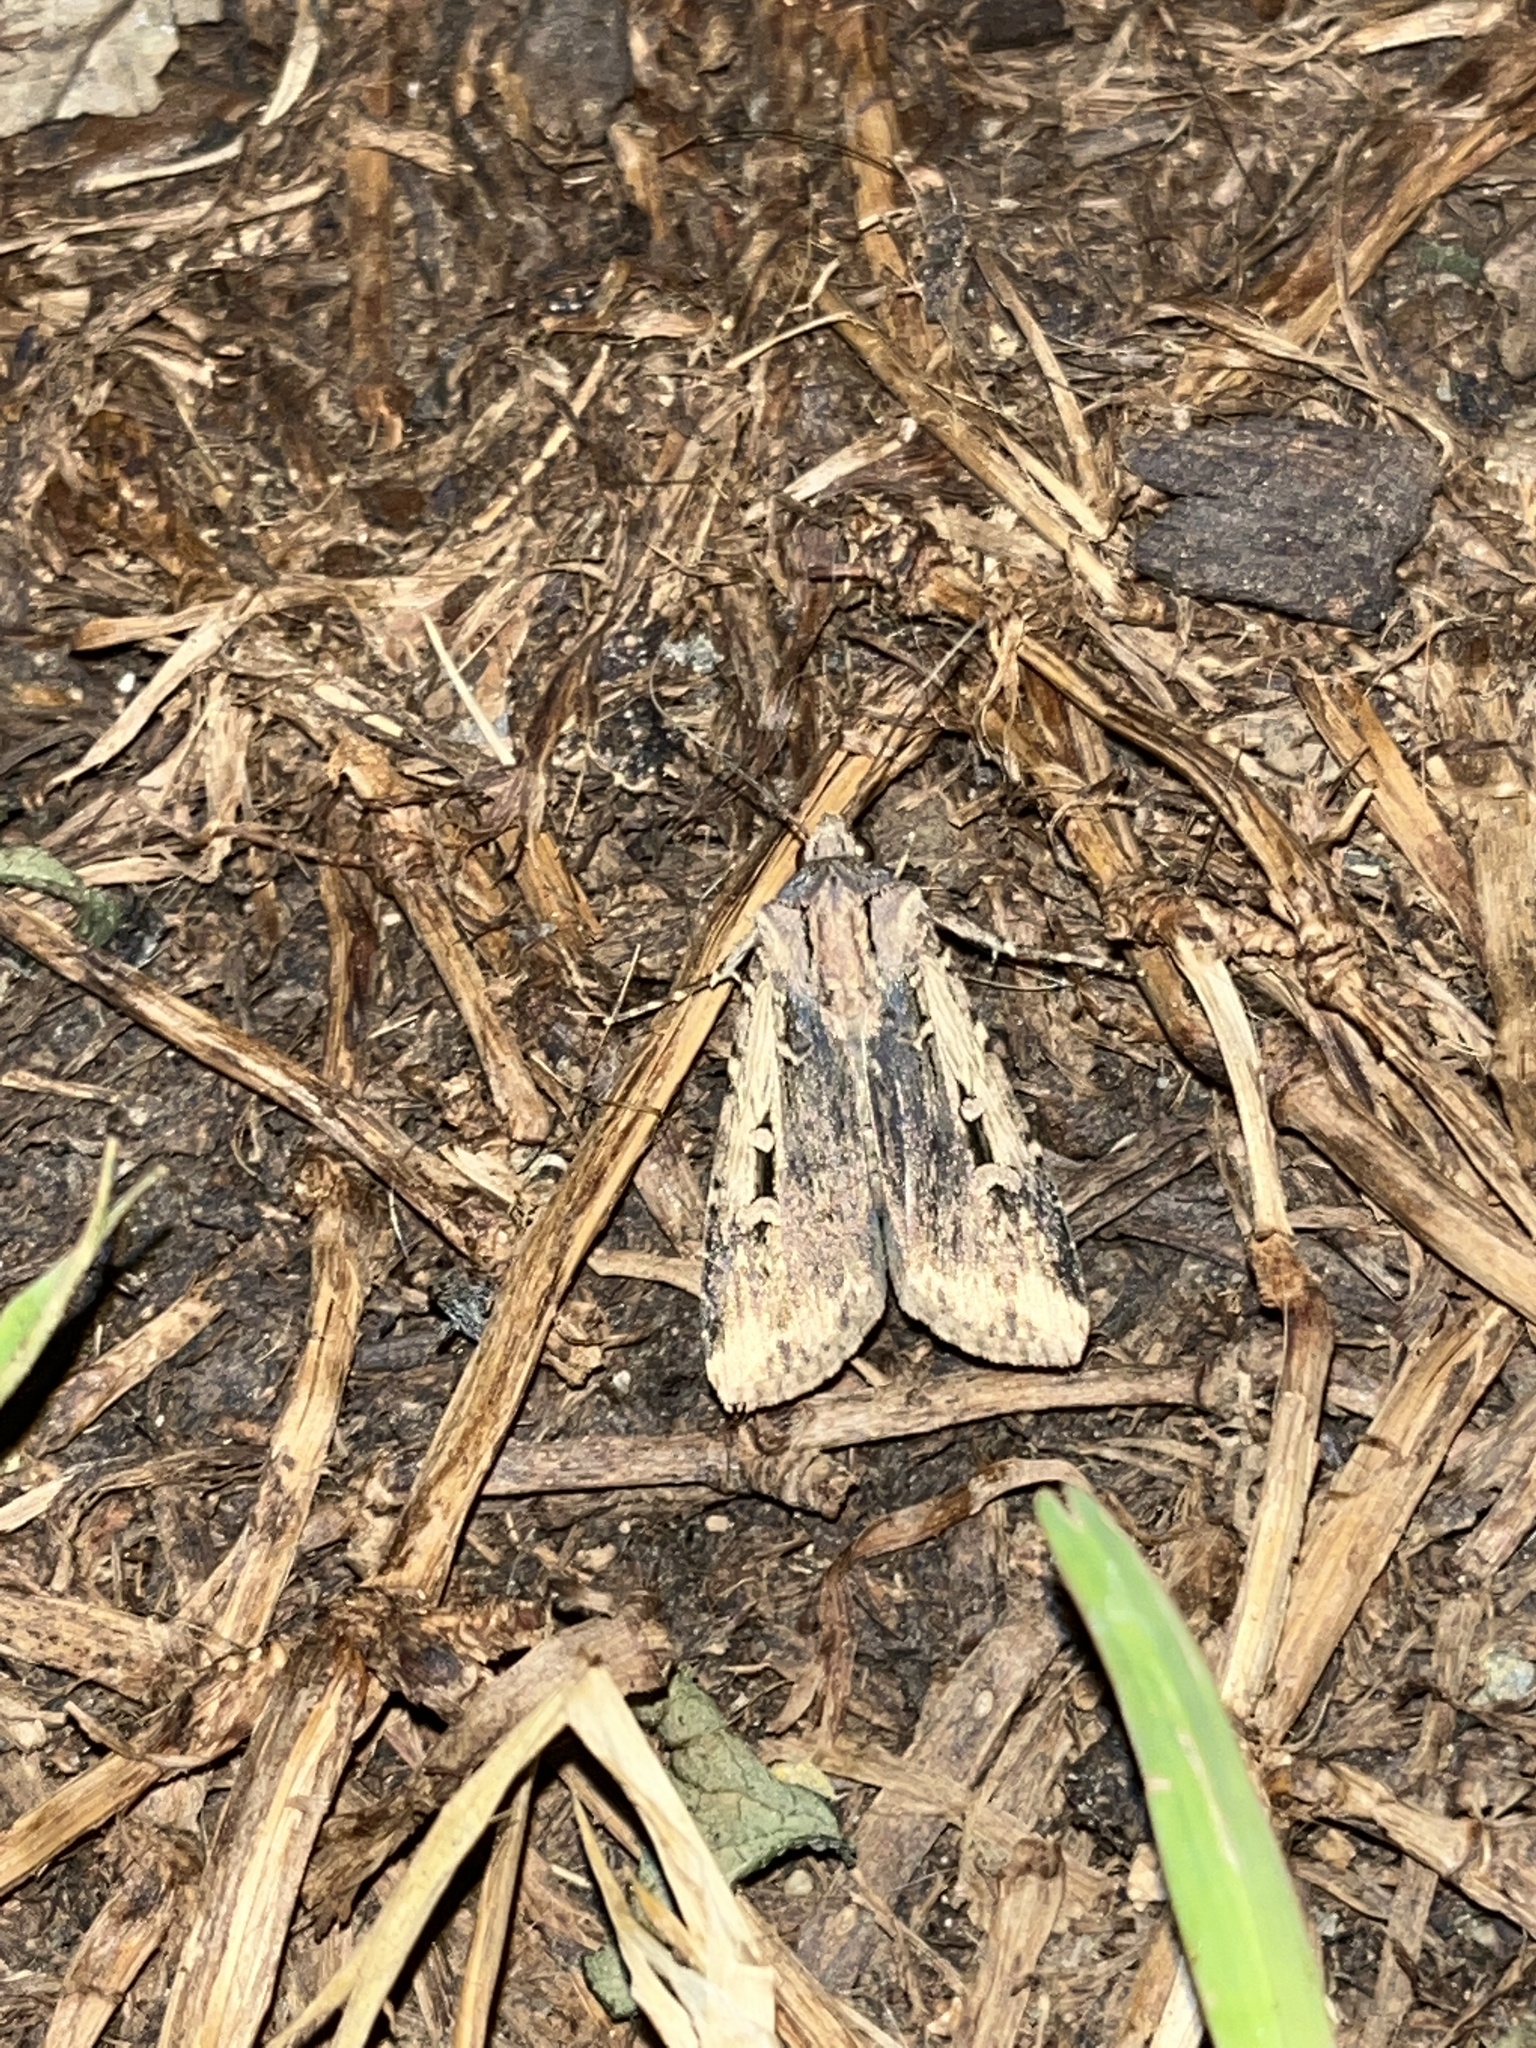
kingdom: Animalia
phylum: Arthropoda
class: Insecta
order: Lepidoptera
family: Noctuidae
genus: Feltia
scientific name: Feltia subterranea
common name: Granulate cutworm
